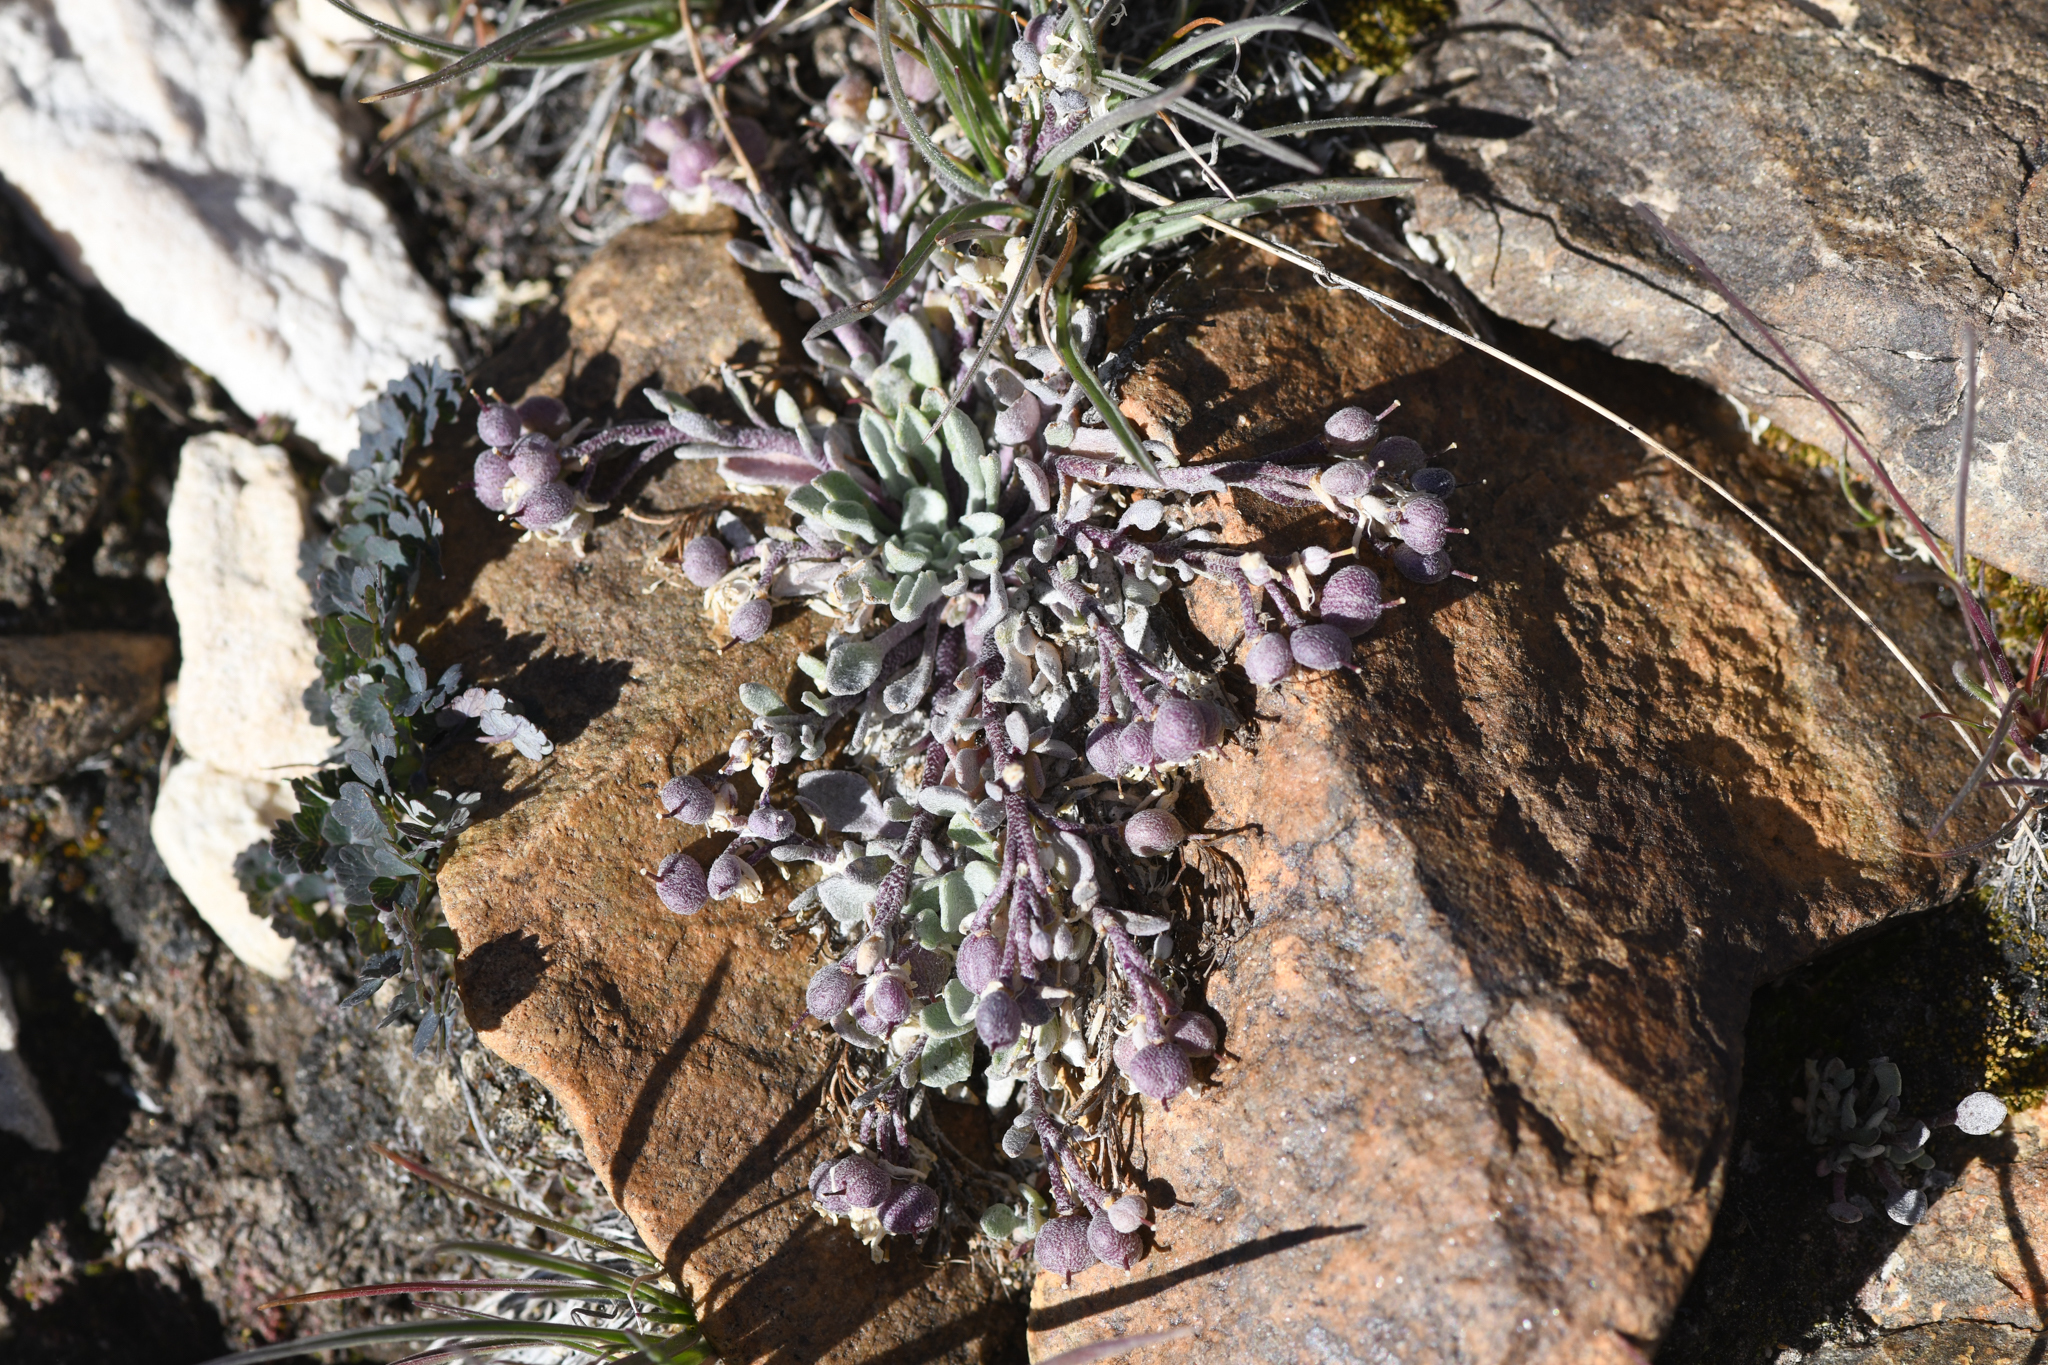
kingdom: Plantae
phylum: Tracheophyta
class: Magnoliopsida
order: Brassicales
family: Brassicaceae
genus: Physaria
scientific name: Physaria kingii
